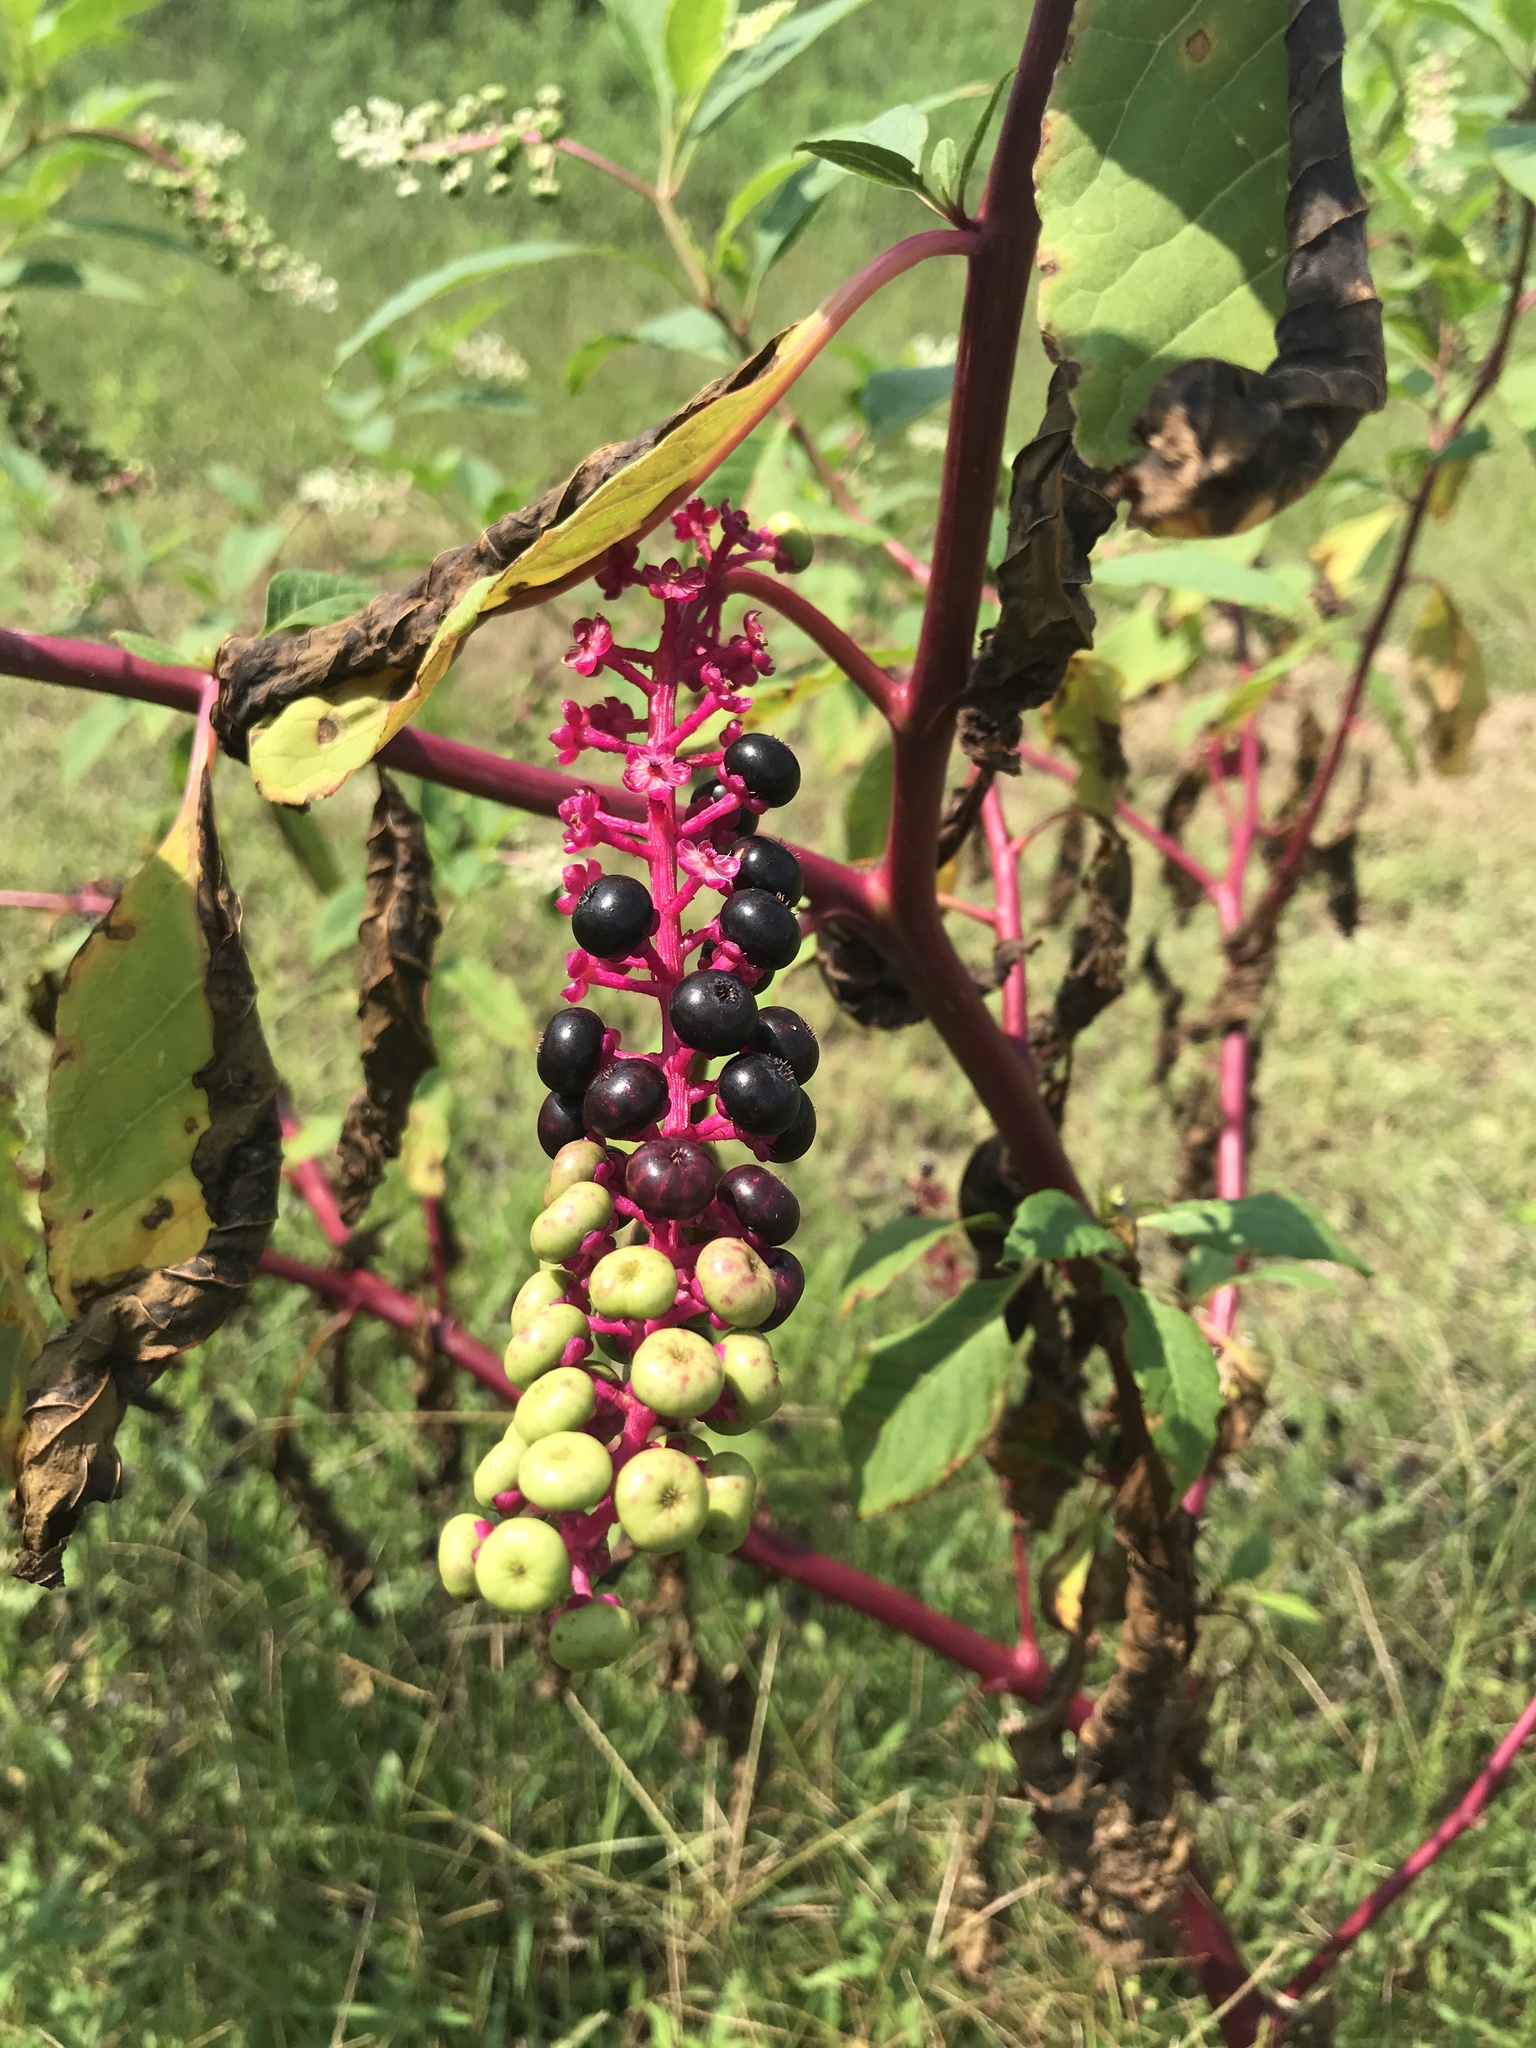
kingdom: Plantae
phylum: Tracheophyta
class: Magnoliopsida
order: Caryophyllales
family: Phytolaccaceae
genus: Phytolacca
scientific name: Phytolacca americana
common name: American pokeweed
